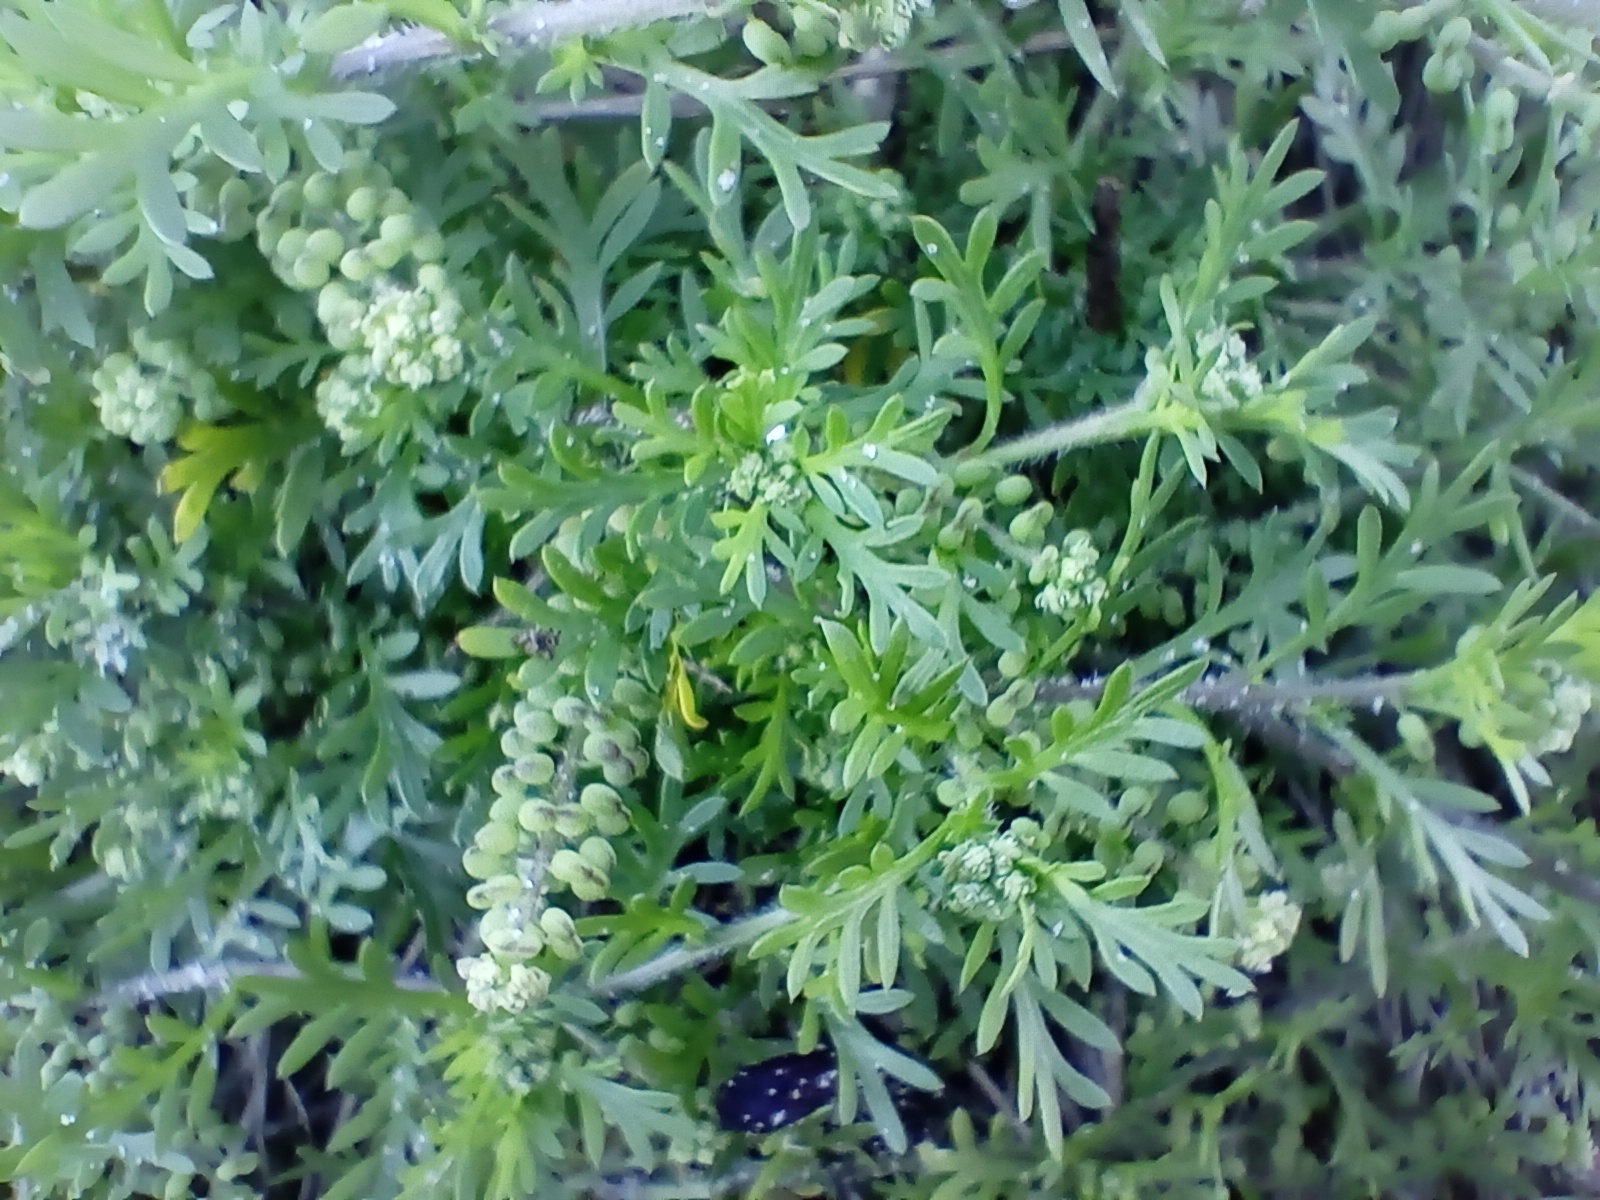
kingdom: Plantae
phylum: Tracheophyta
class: Magnoliopsida
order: Brassicales
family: Brassicaceae
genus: Lepidium
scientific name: Lepidium didymum
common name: Lesser swinecress
